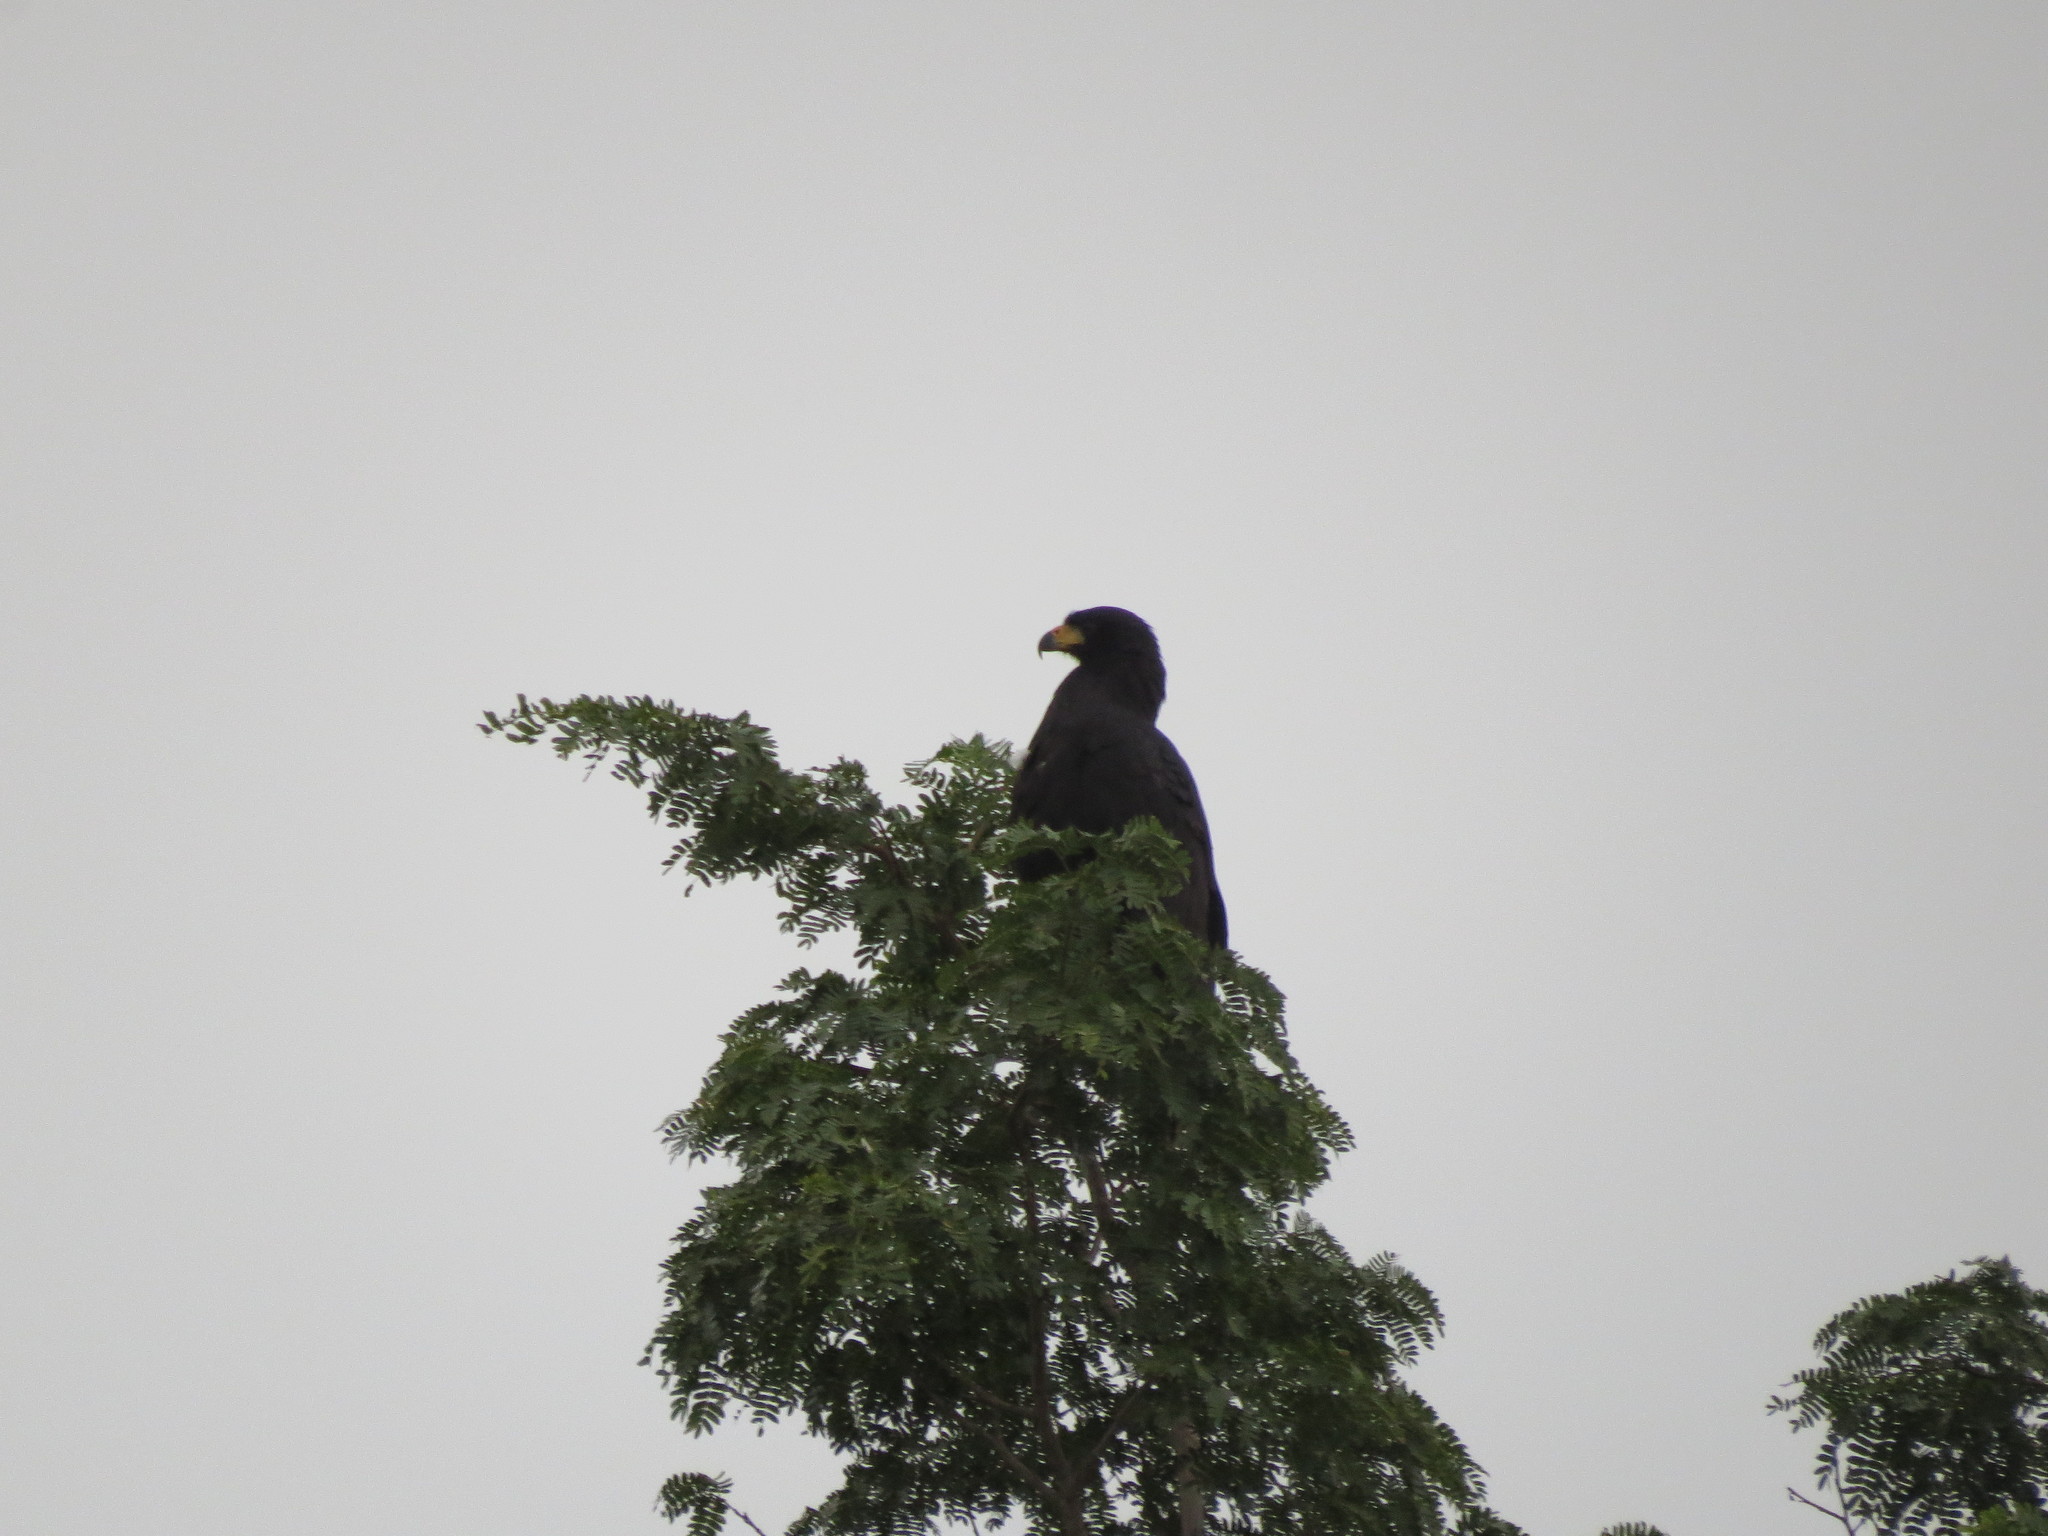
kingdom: Animalia
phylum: Chordata
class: Aves
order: Accipitriformes
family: Accipitridae
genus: Buteogallus
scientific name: Buteogallus urubitinga
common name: Great black hawk
